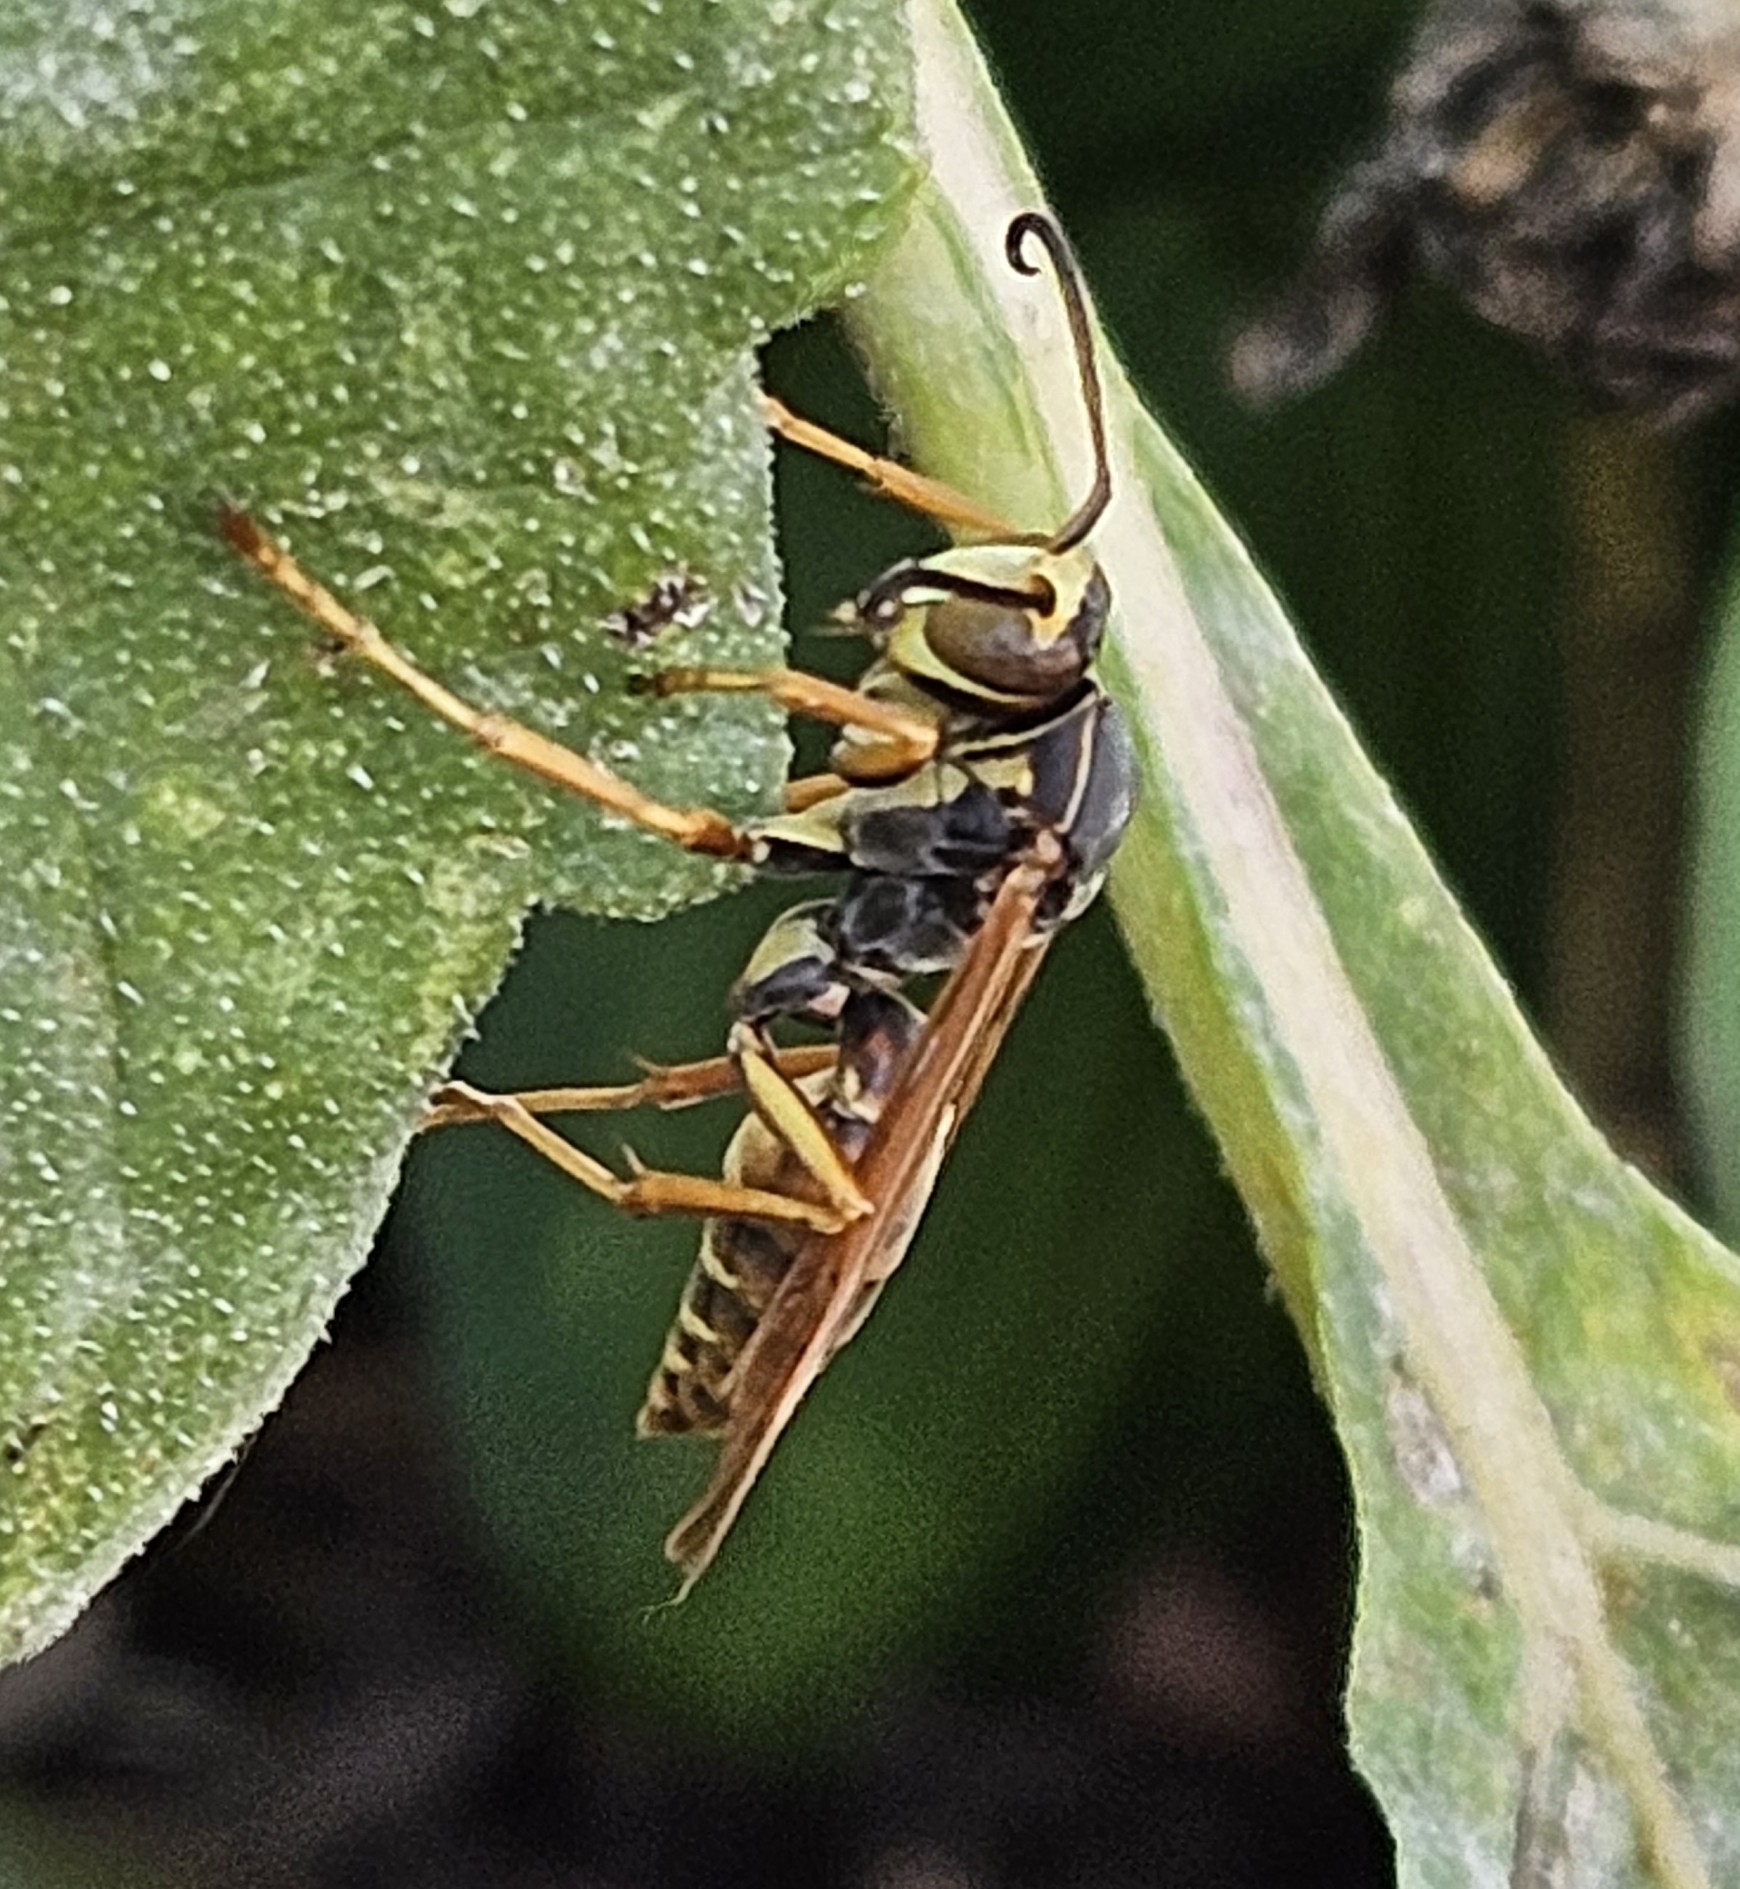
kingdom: Animalia
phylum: Arthropoda
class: Insecta
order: Hymenoptera
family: Eumenidae
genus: Polistes
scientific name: Polistes fuscatus
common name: Dark paper wasp
